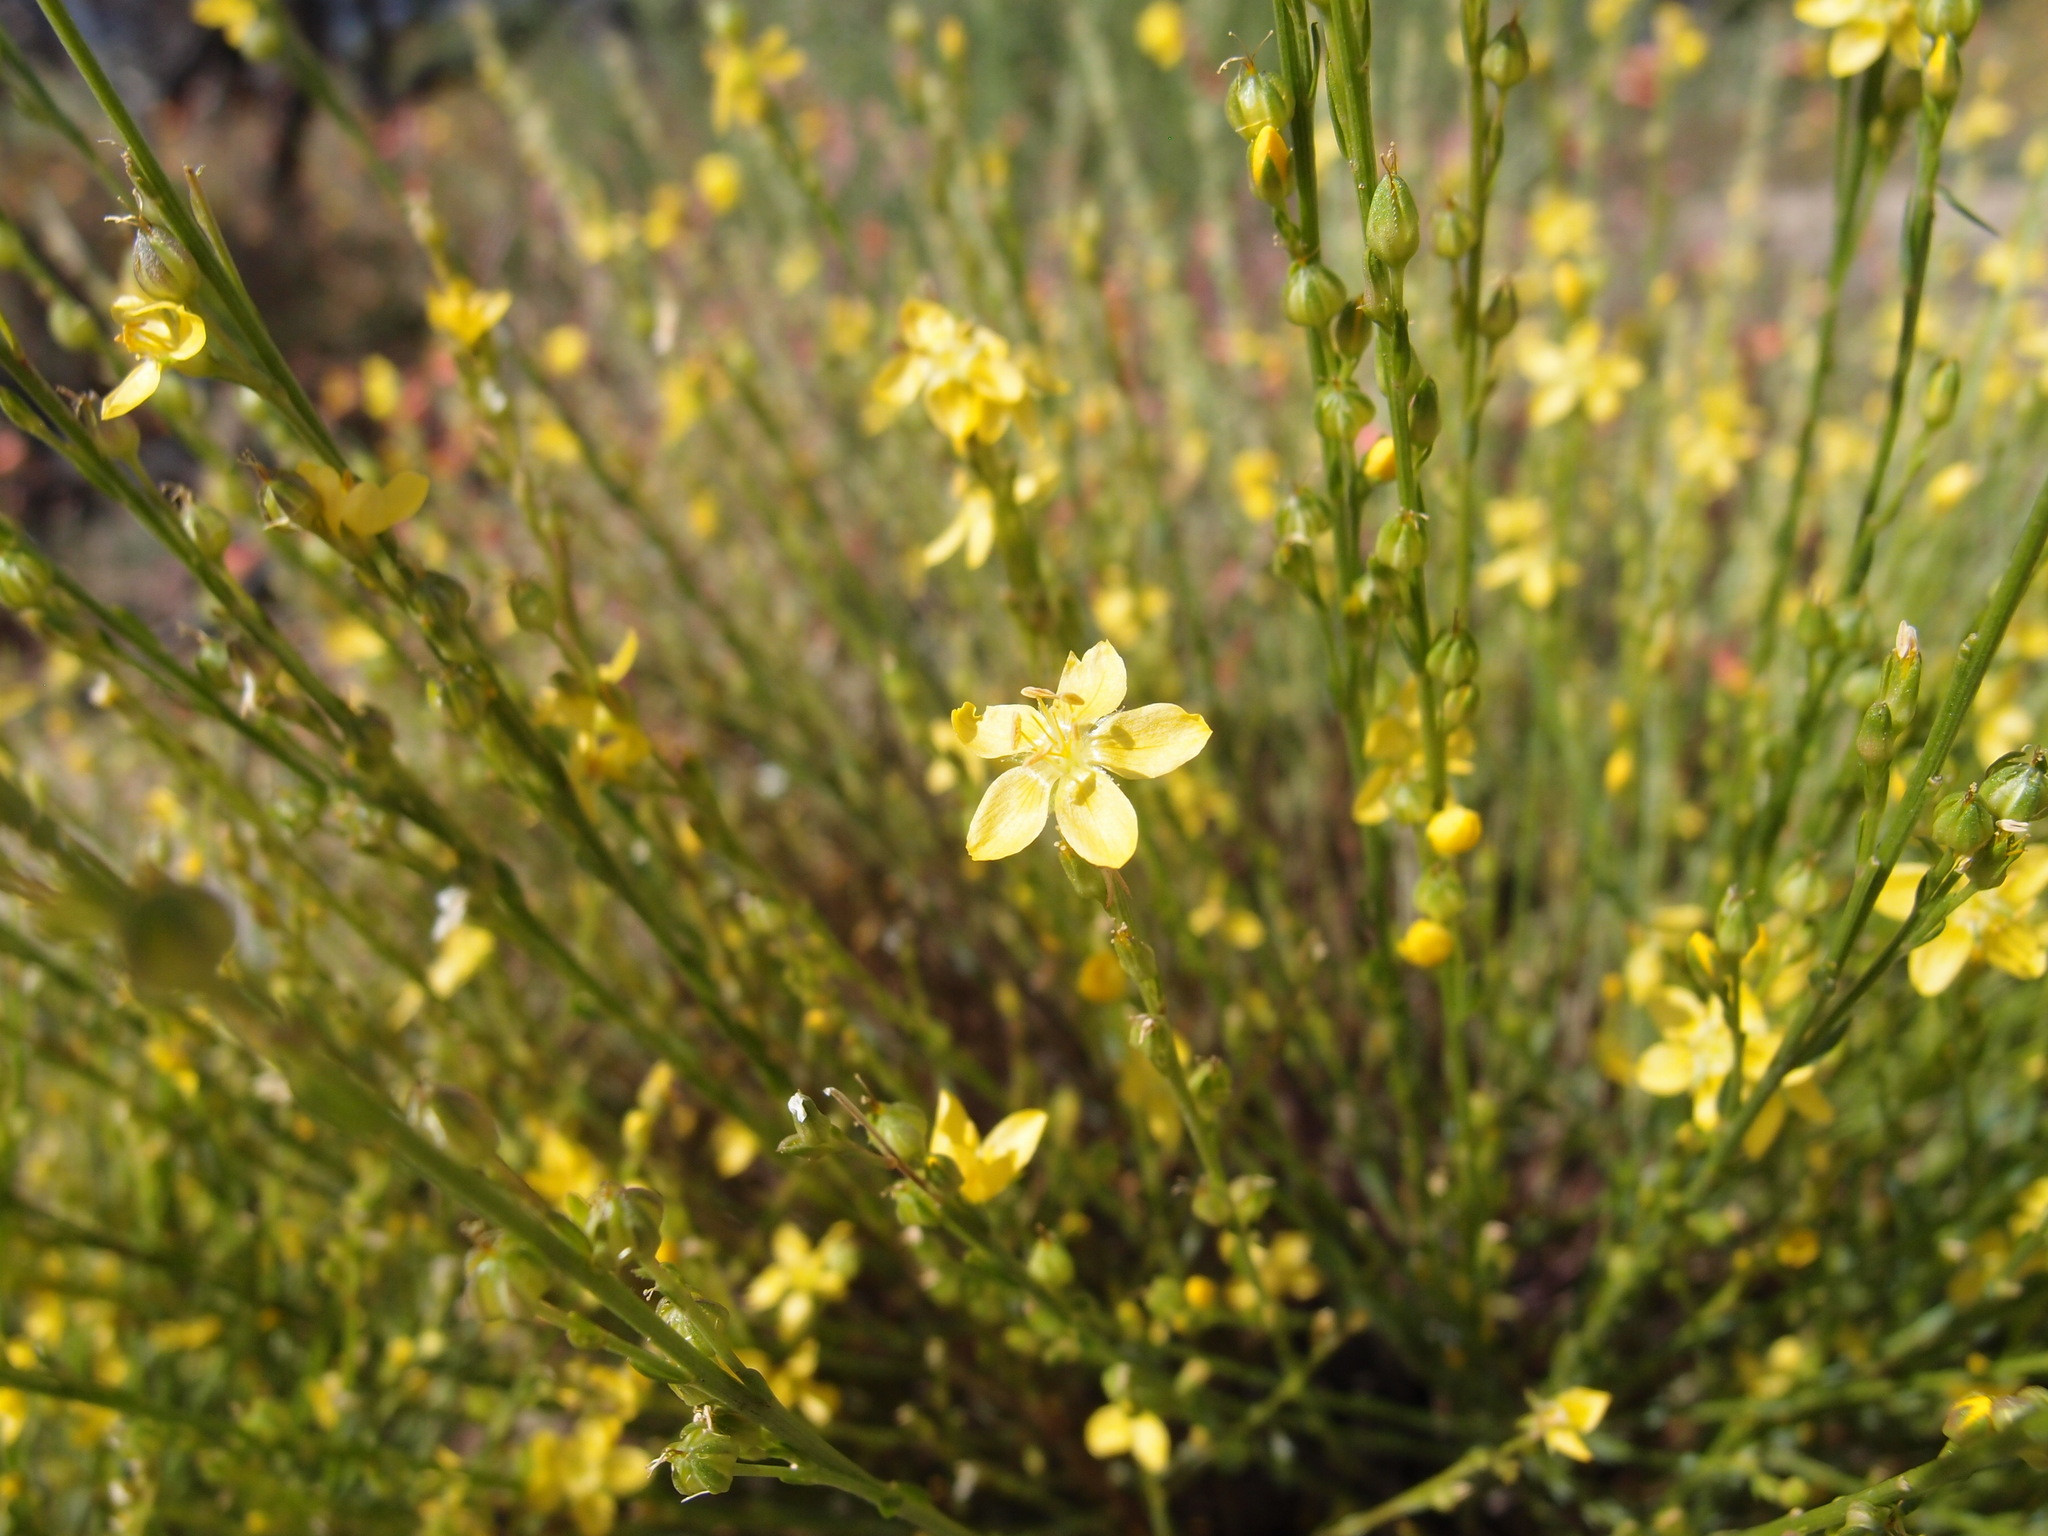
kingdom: Plantae
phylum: Tracheophyta
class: Magnoliopsida
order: Malpighiales
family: Linaceae
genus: Linum
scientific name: Linum neomexicanum
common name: New mexico yellow flax
